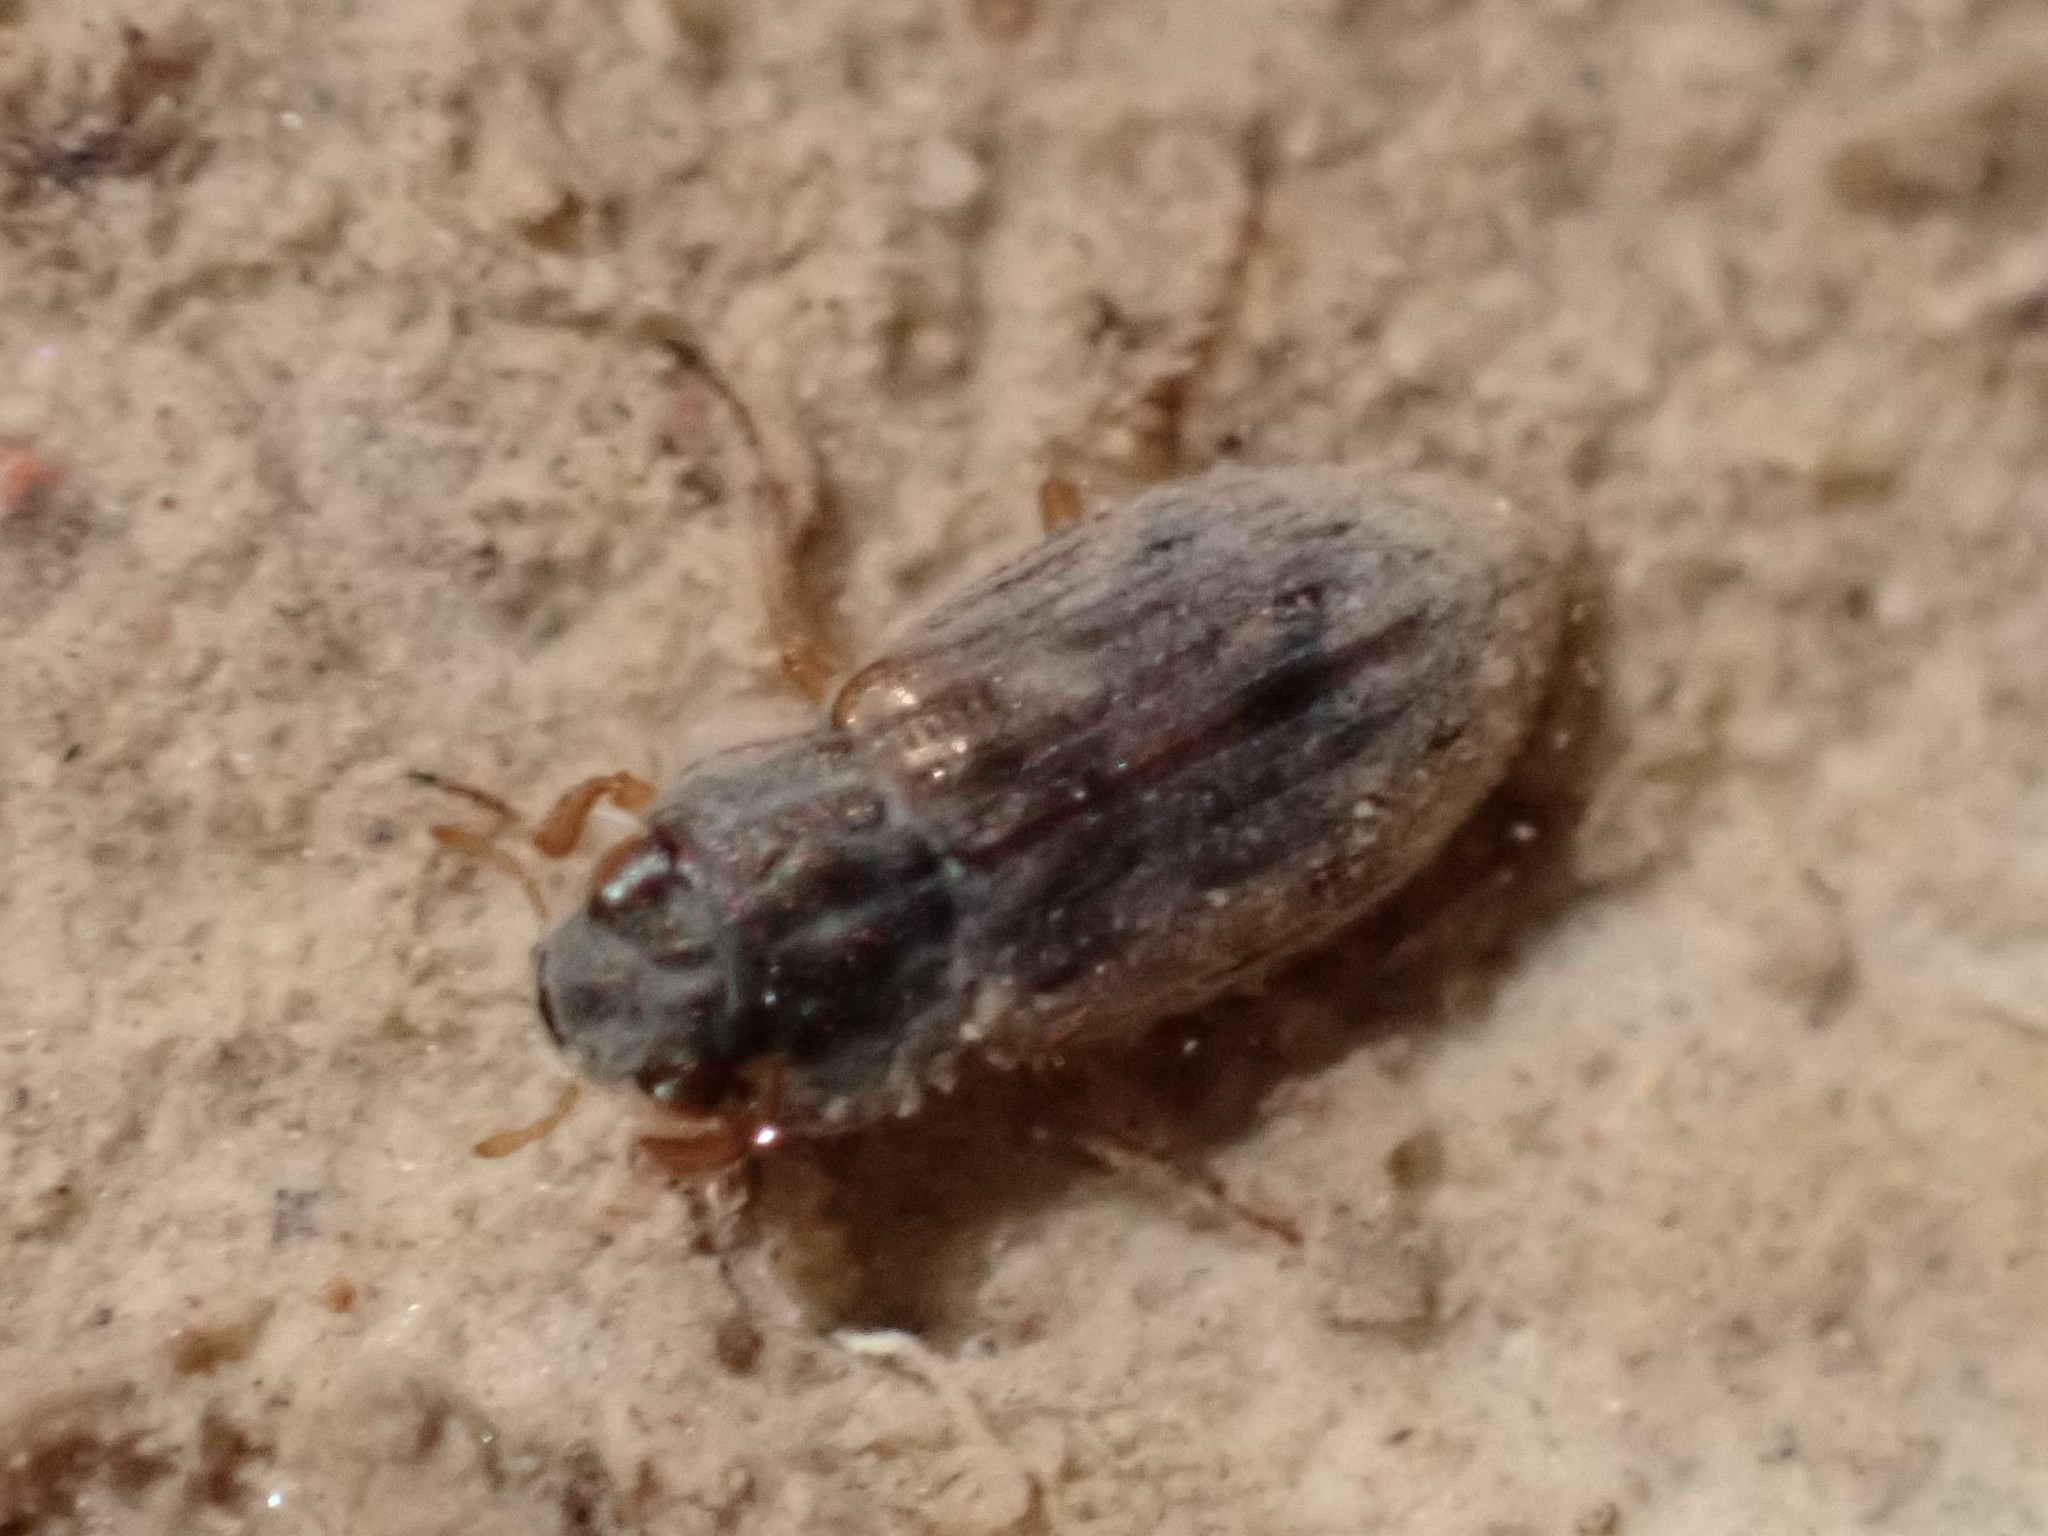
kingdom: Animalia
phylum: Arthropoda
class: Insecta
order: Coleoptera
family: Helophoridae
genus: Helophorus
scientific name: Helophorus
